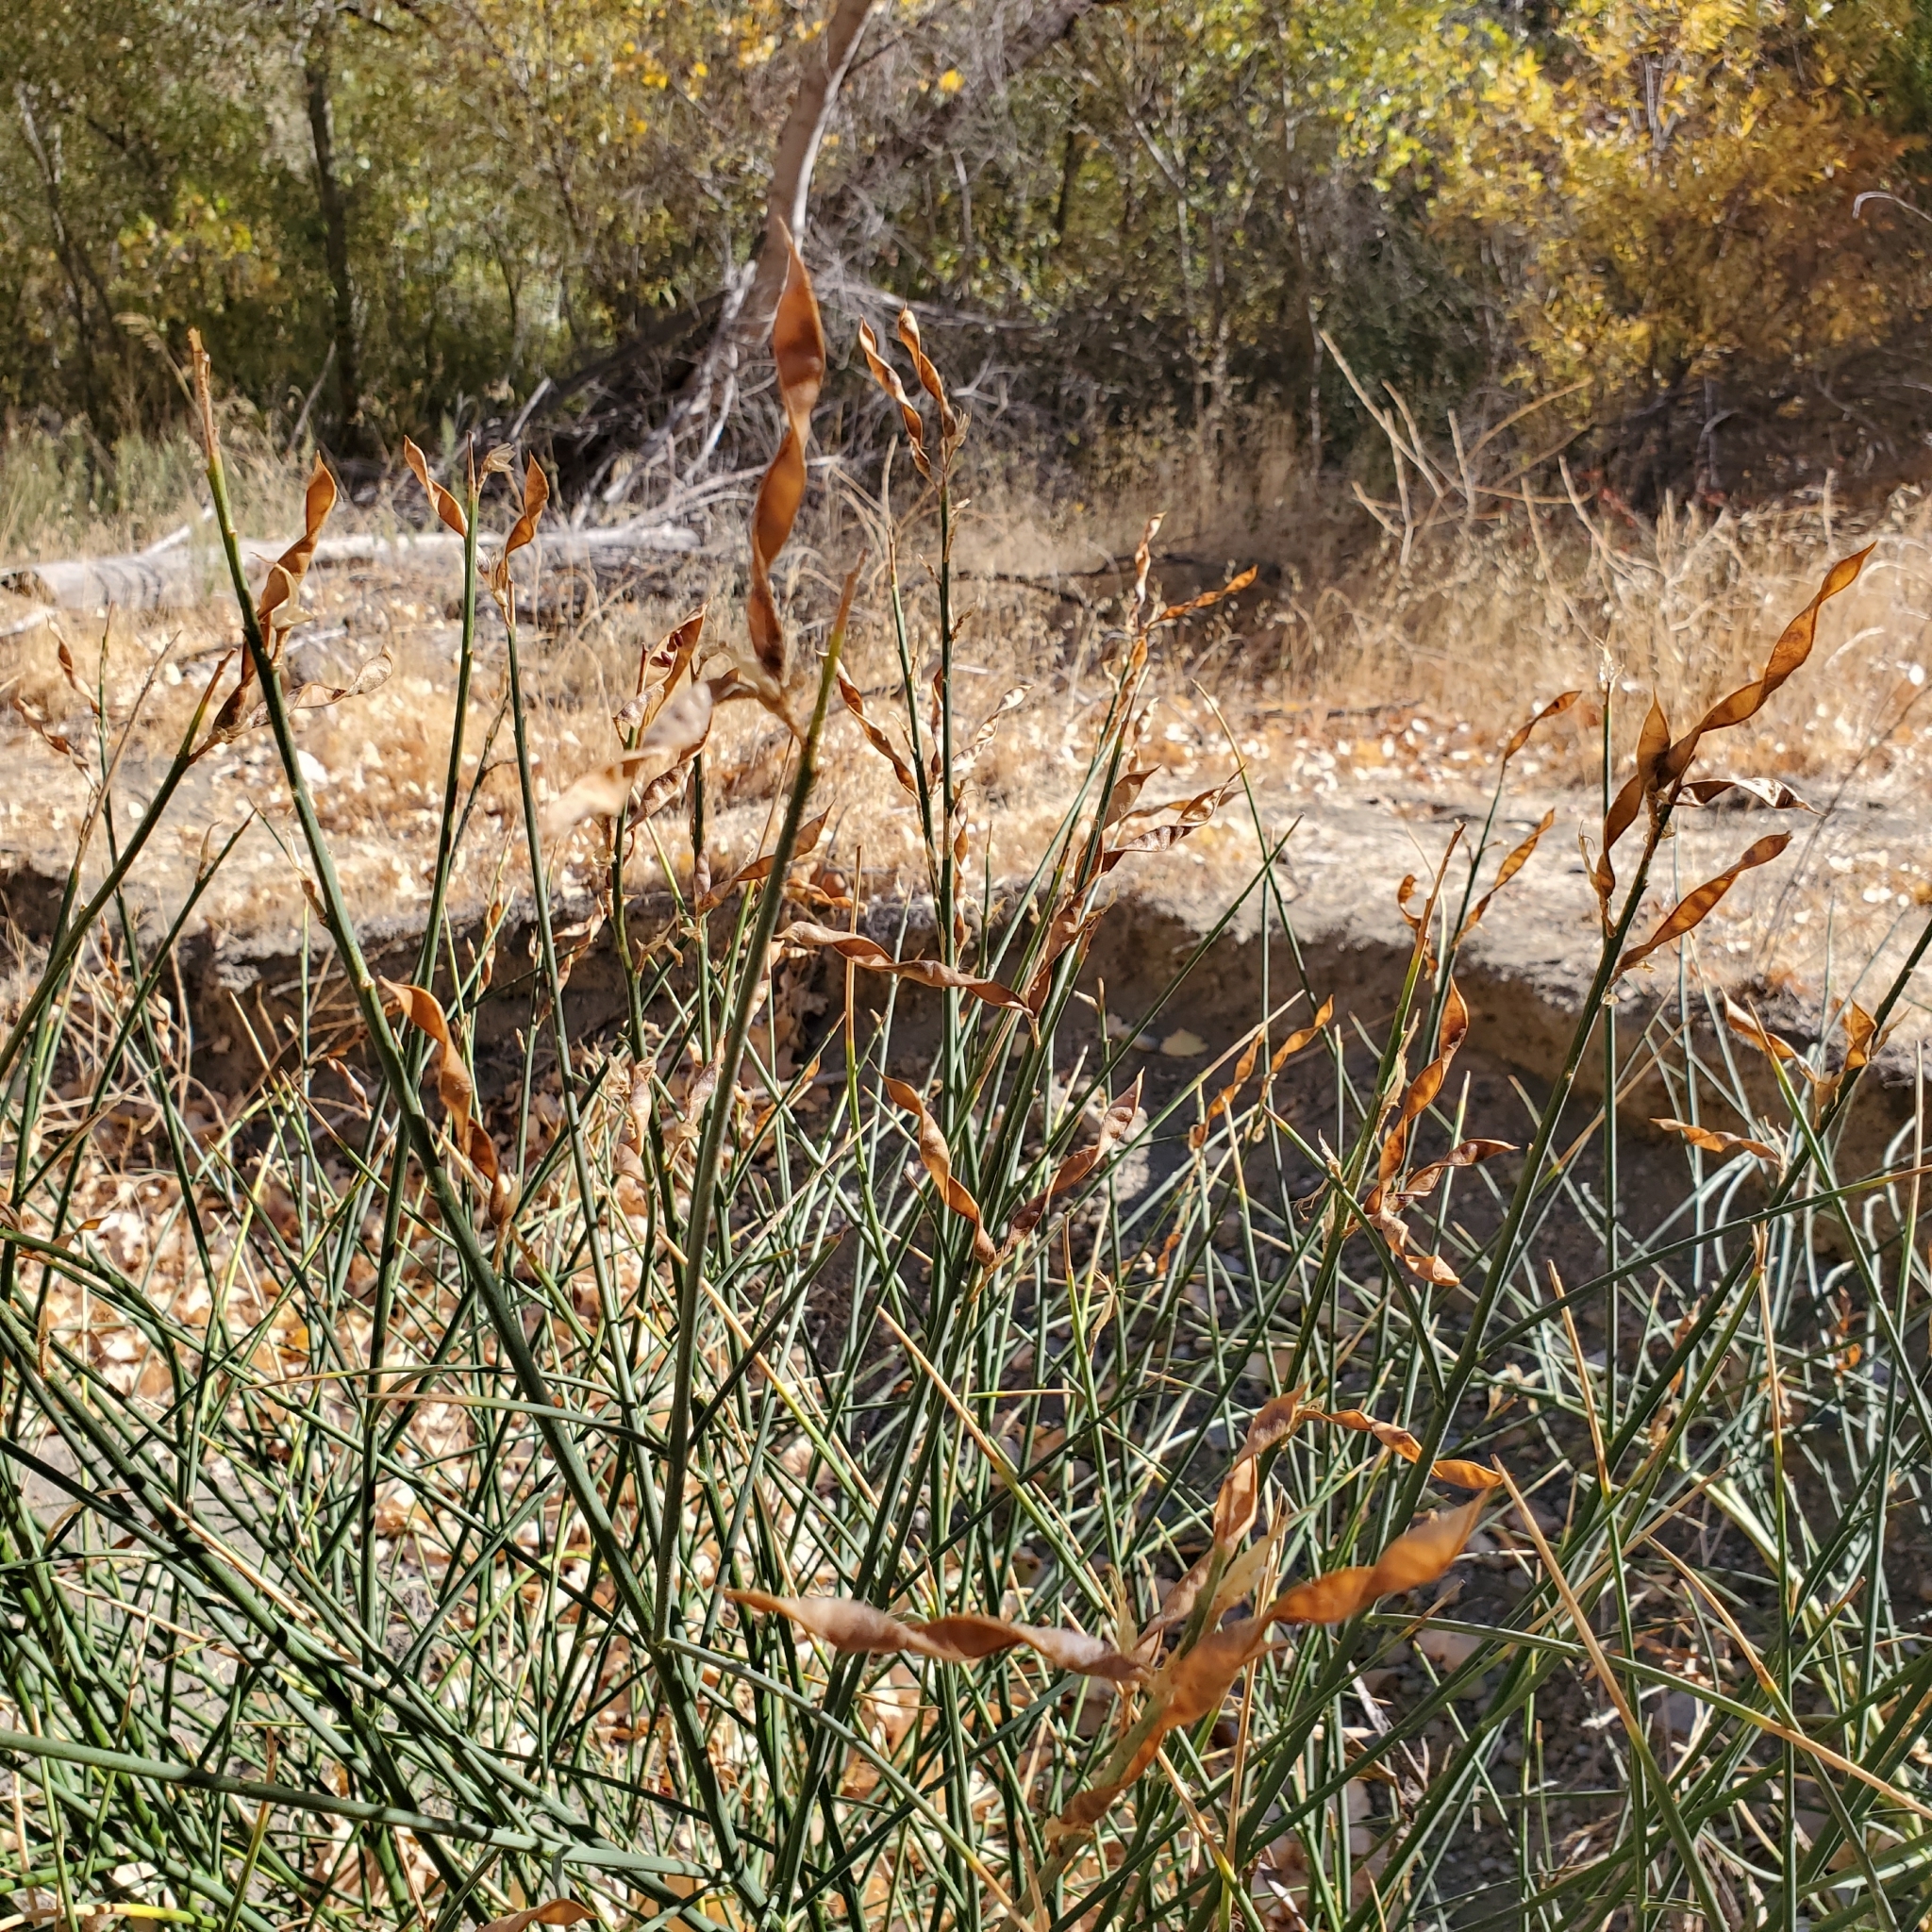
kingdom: Plantae
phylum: Tracheophyta
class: Magnoliopsida
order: Fabales
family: Fabaceae
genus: Spartium
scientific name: Spartium junceum
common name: Spanish broom
